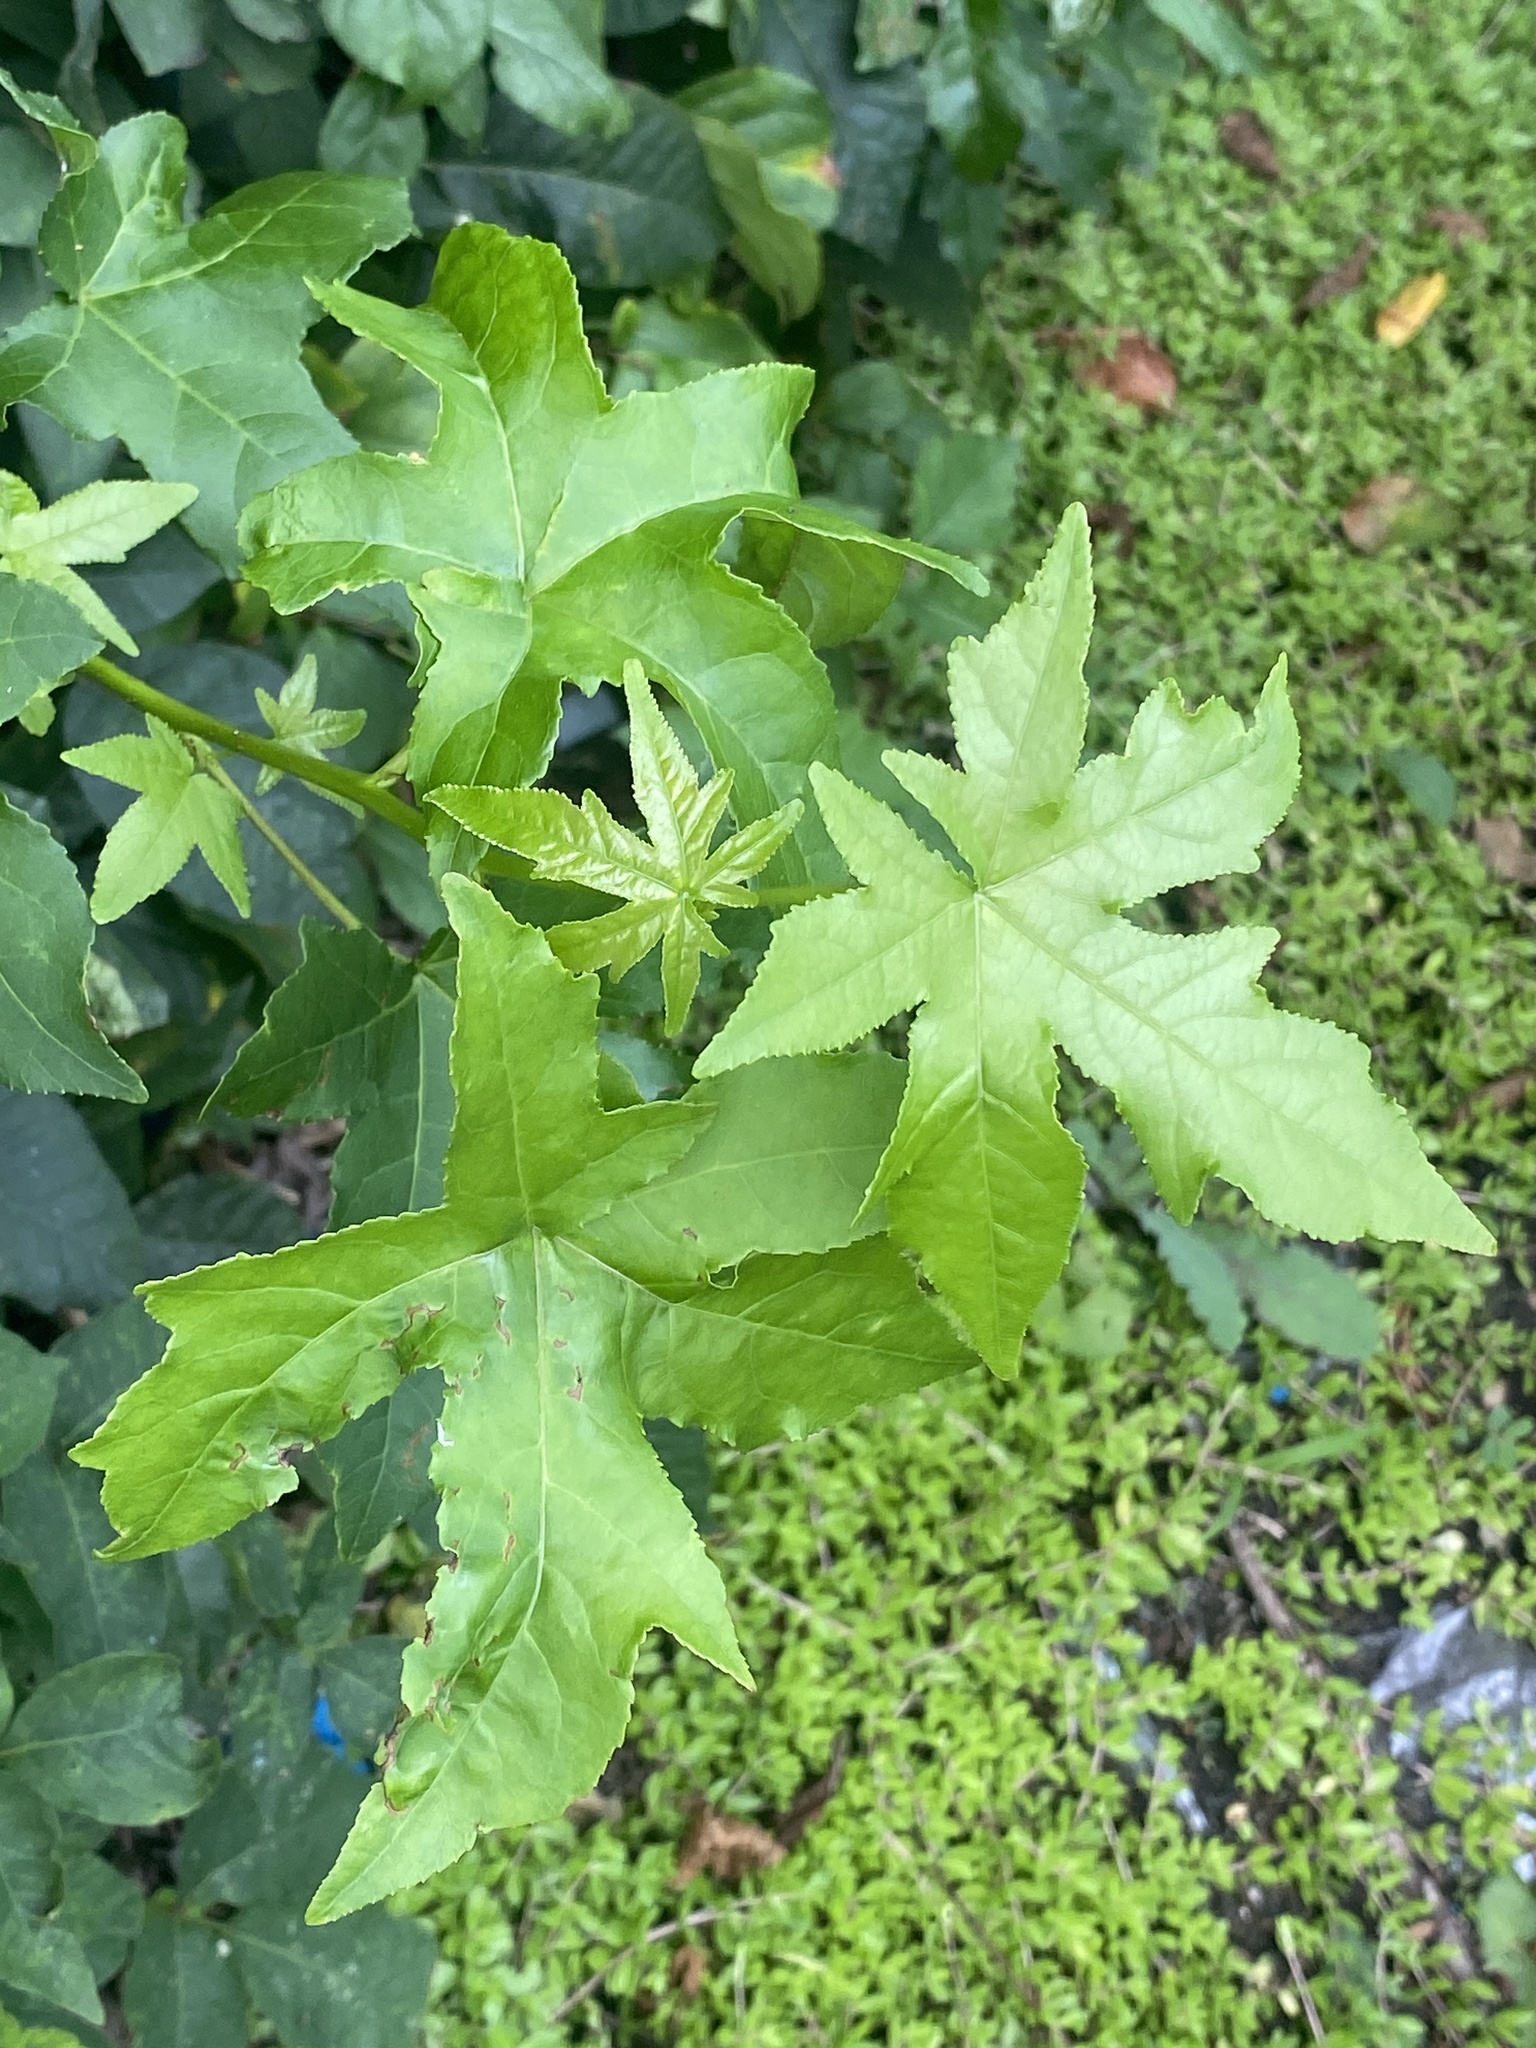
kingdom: Plantae
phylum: Tracheophyta
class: Magnoliopsida
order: Saxifragales
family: Altingiaceae
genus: Liquidambar
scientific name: Liquidambar styraciflua
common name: Sweet gum
